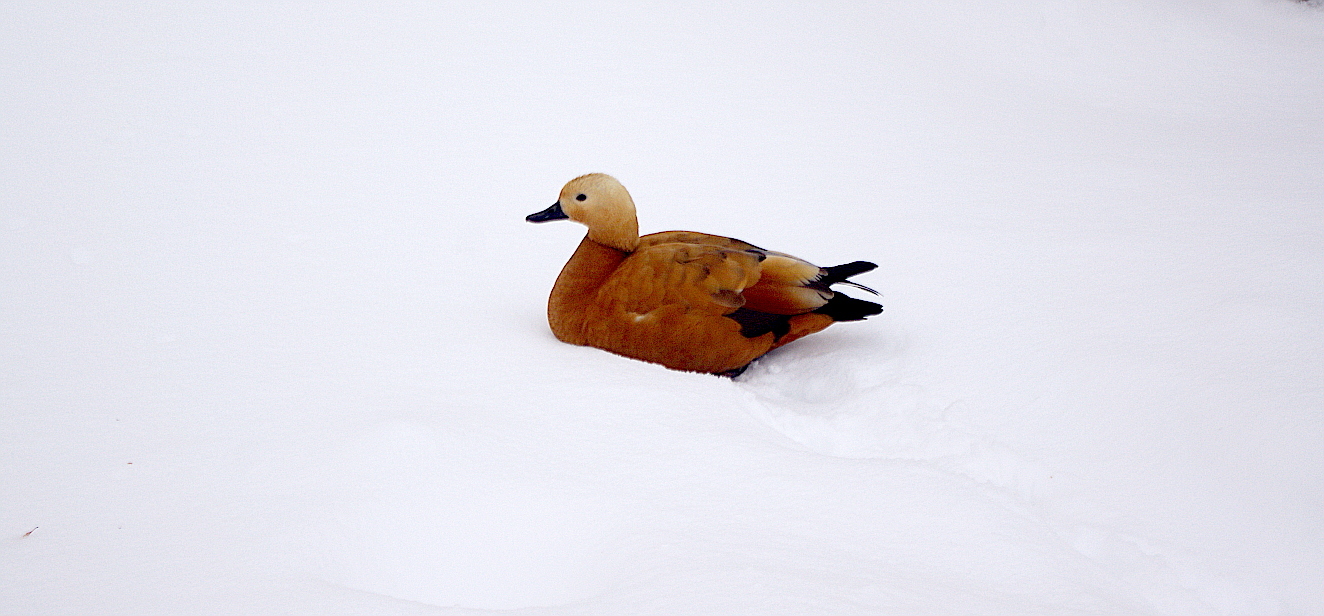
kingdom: Animalia
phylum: Chordata
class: Aves
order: Anseriformes
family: Anatidae
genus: Tadorna
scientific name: Tadorna ferruginea
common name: Ruddy shelduck
